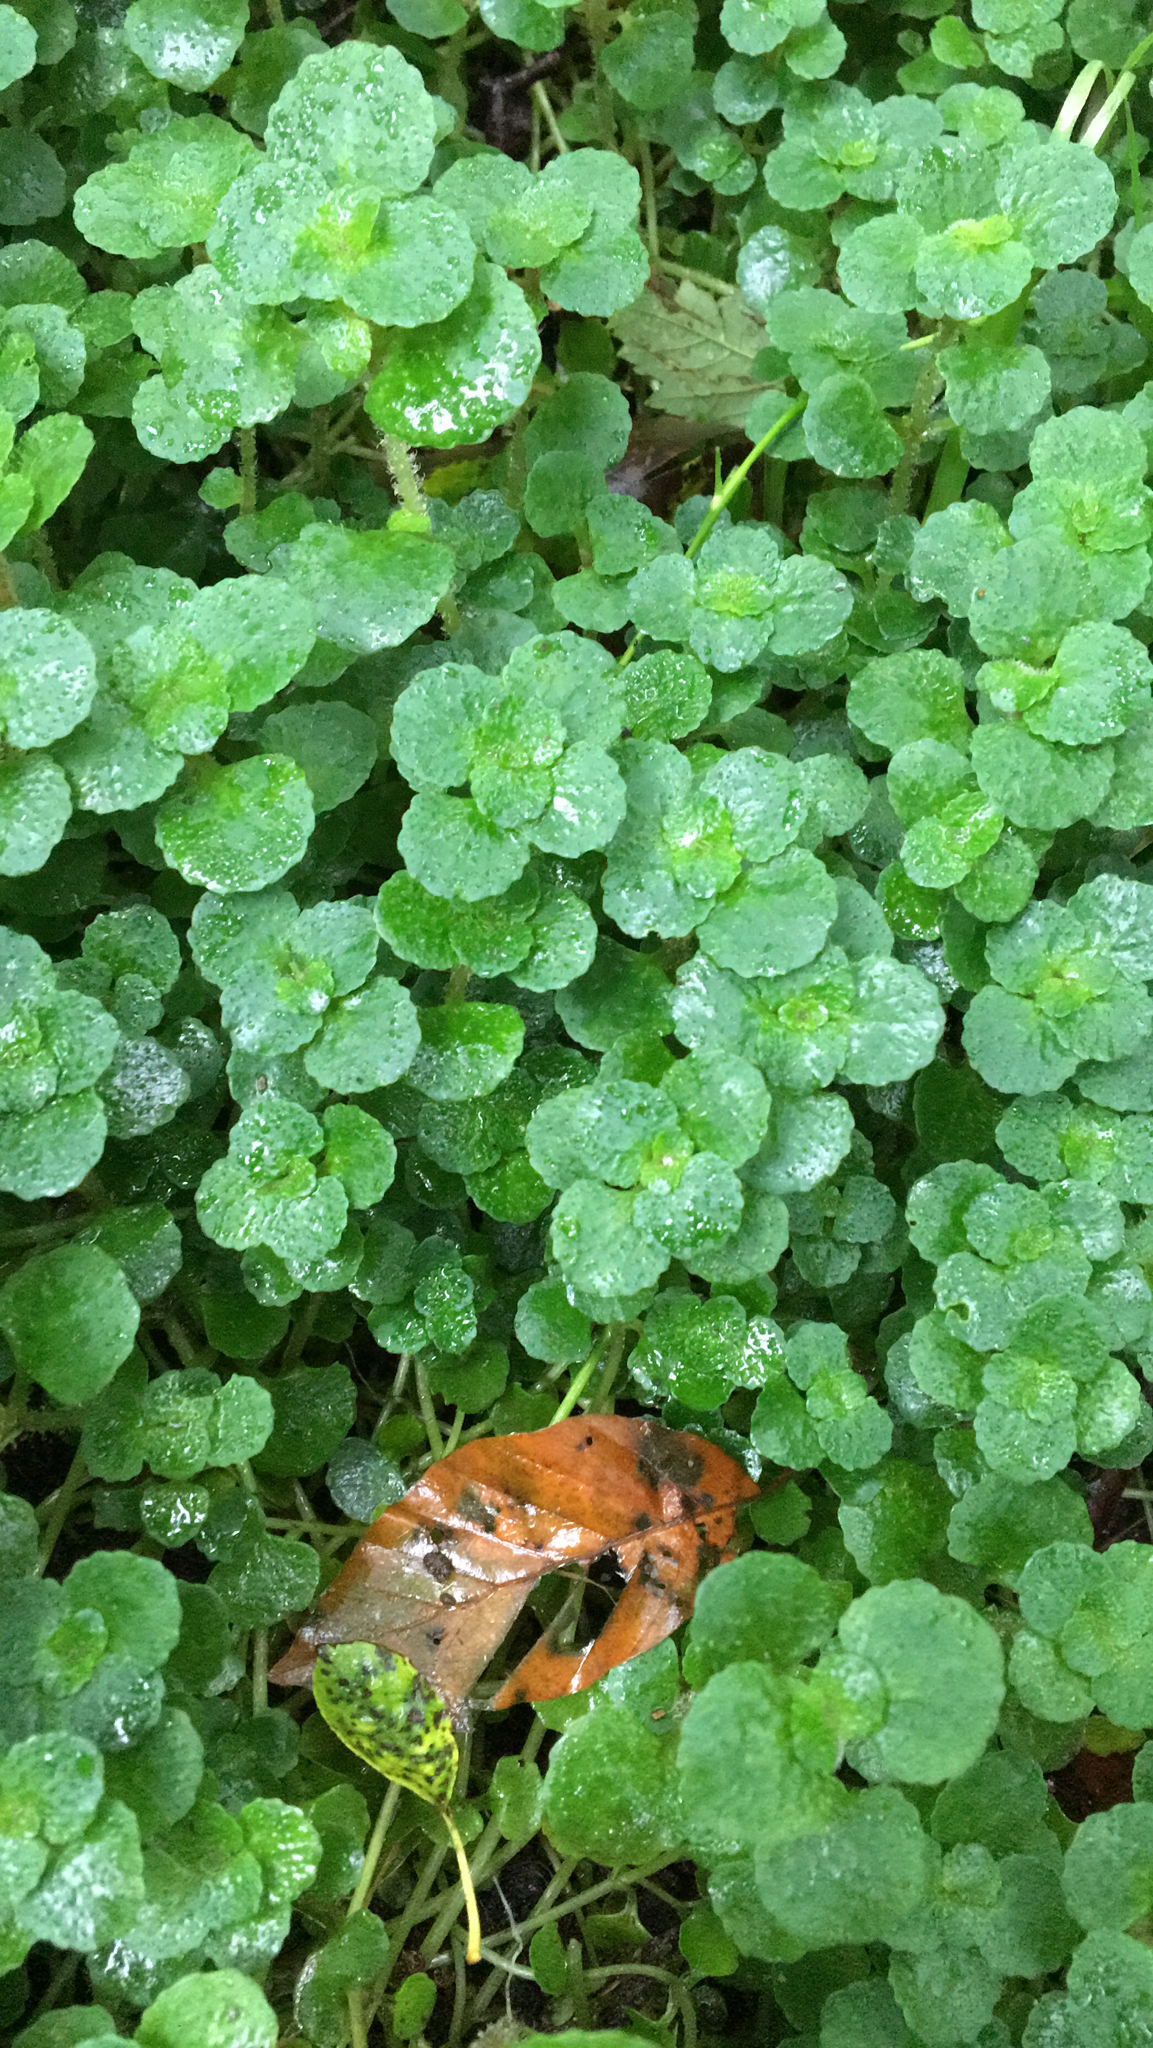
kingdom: Plantae
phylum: Tracheophyta
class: Magnoliopsida
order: Saxifragales
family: Saxifragaceae
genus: Chrysosplenium
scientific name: Chrysosplenium oppositifolium
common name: Opposite-leaved golden-saxifrage
